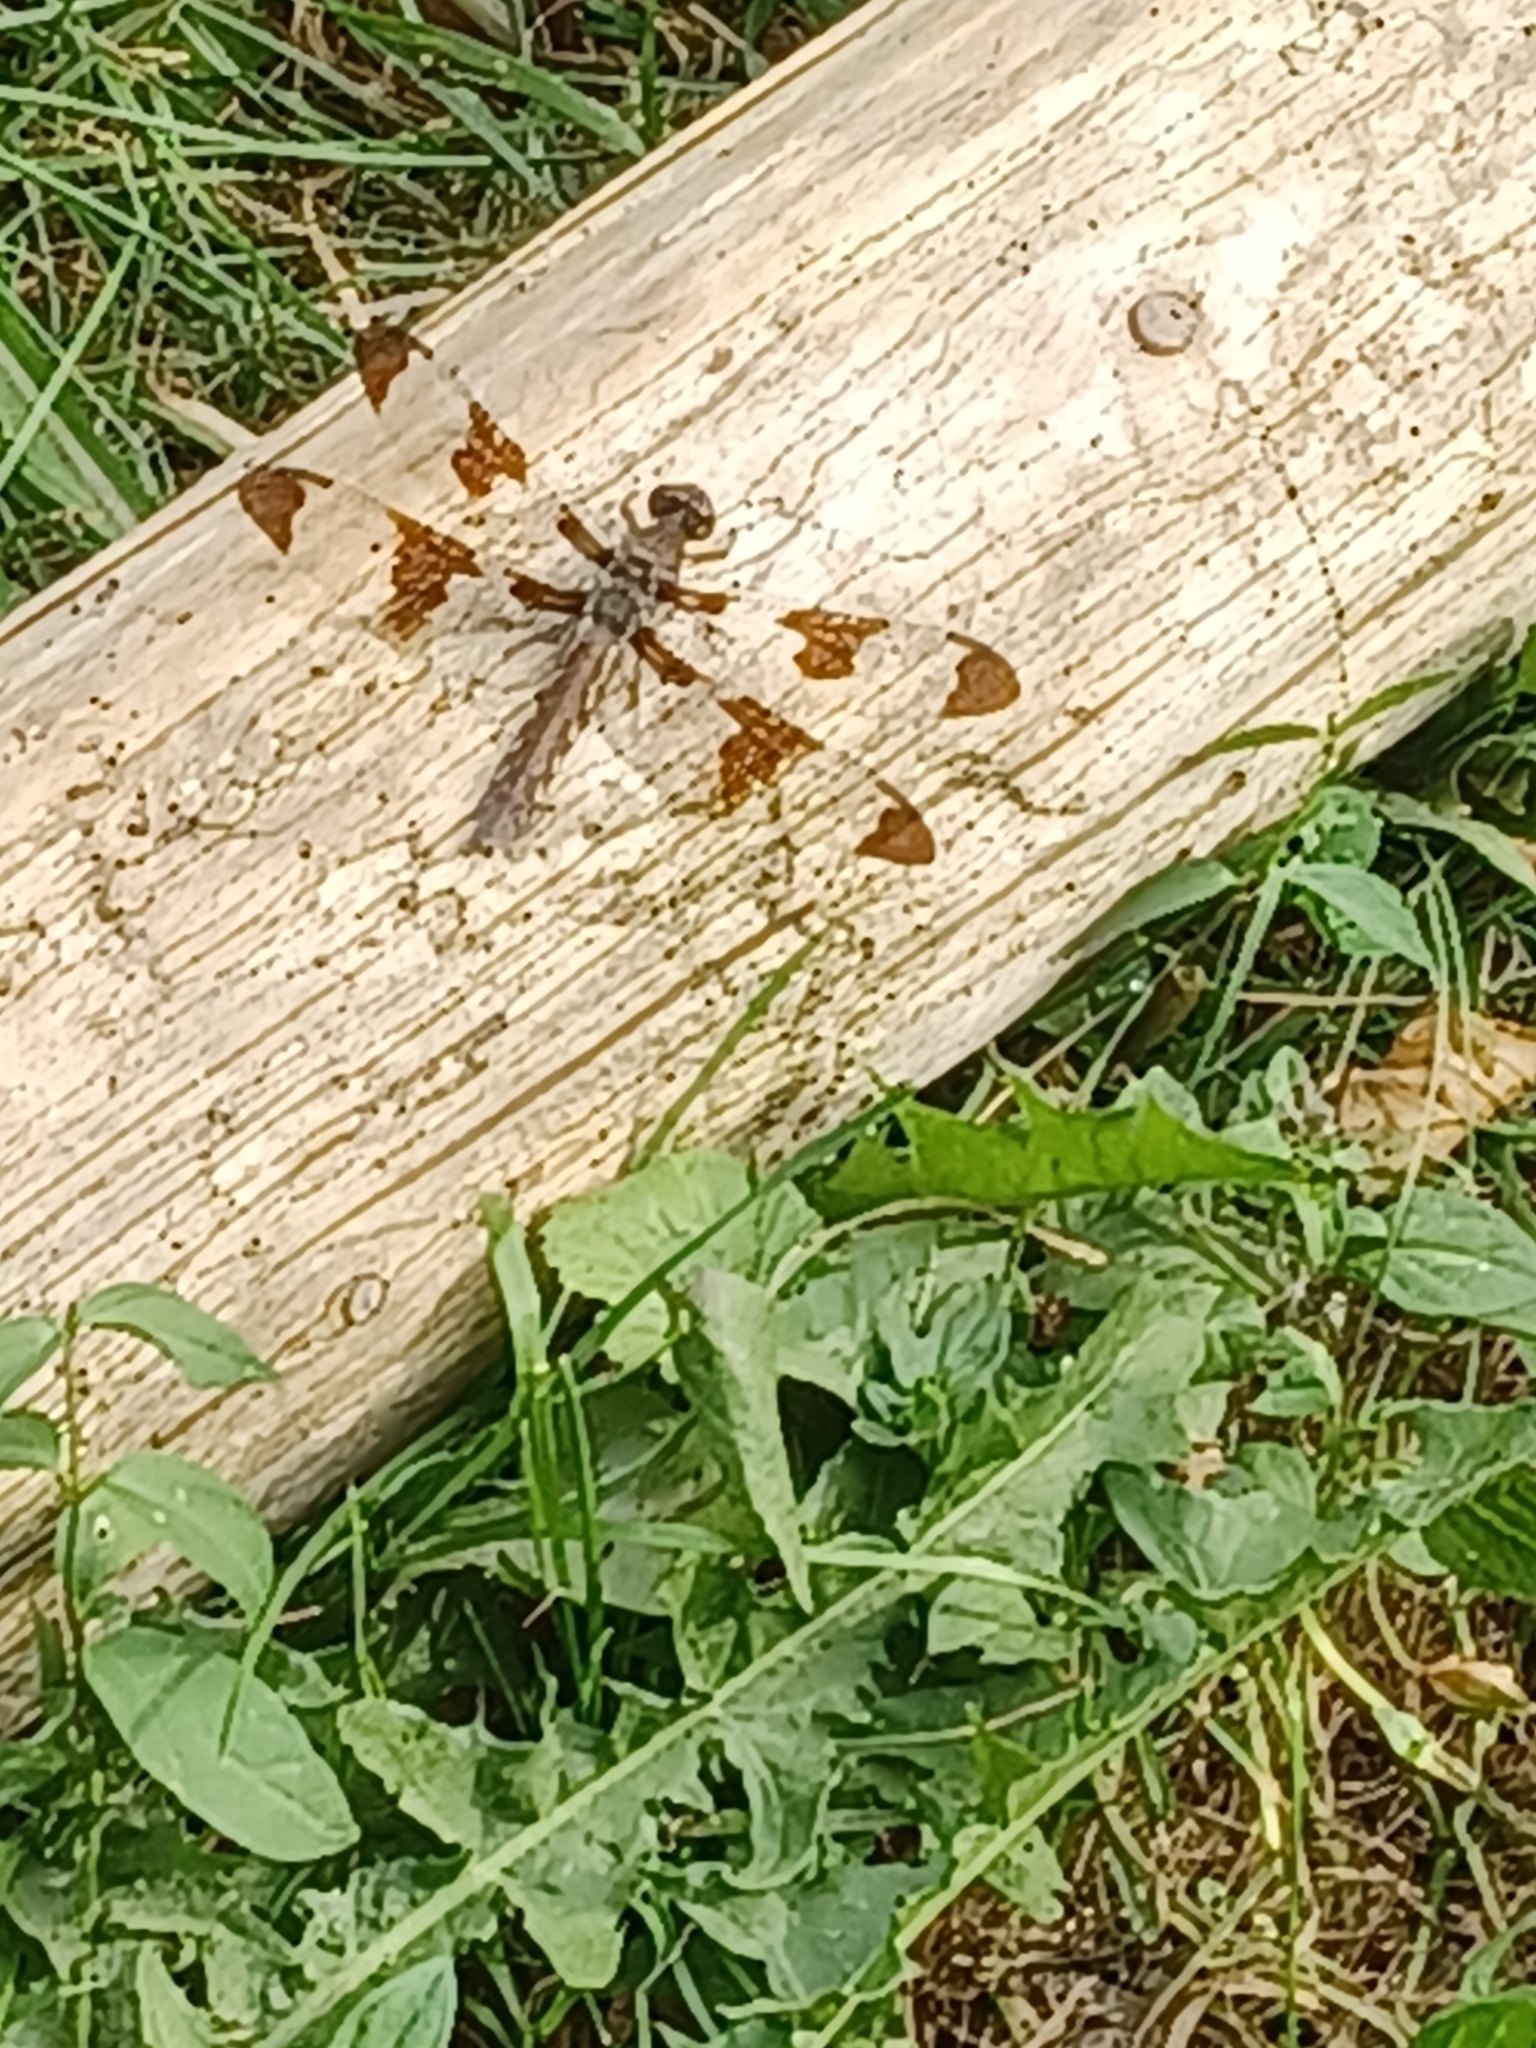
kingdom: Animalia
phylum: Arthropoda
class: Insecta
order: Odonata
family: Libellulidae
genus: Plathemis
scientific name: Plathemis lydia
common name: Common whitetail
